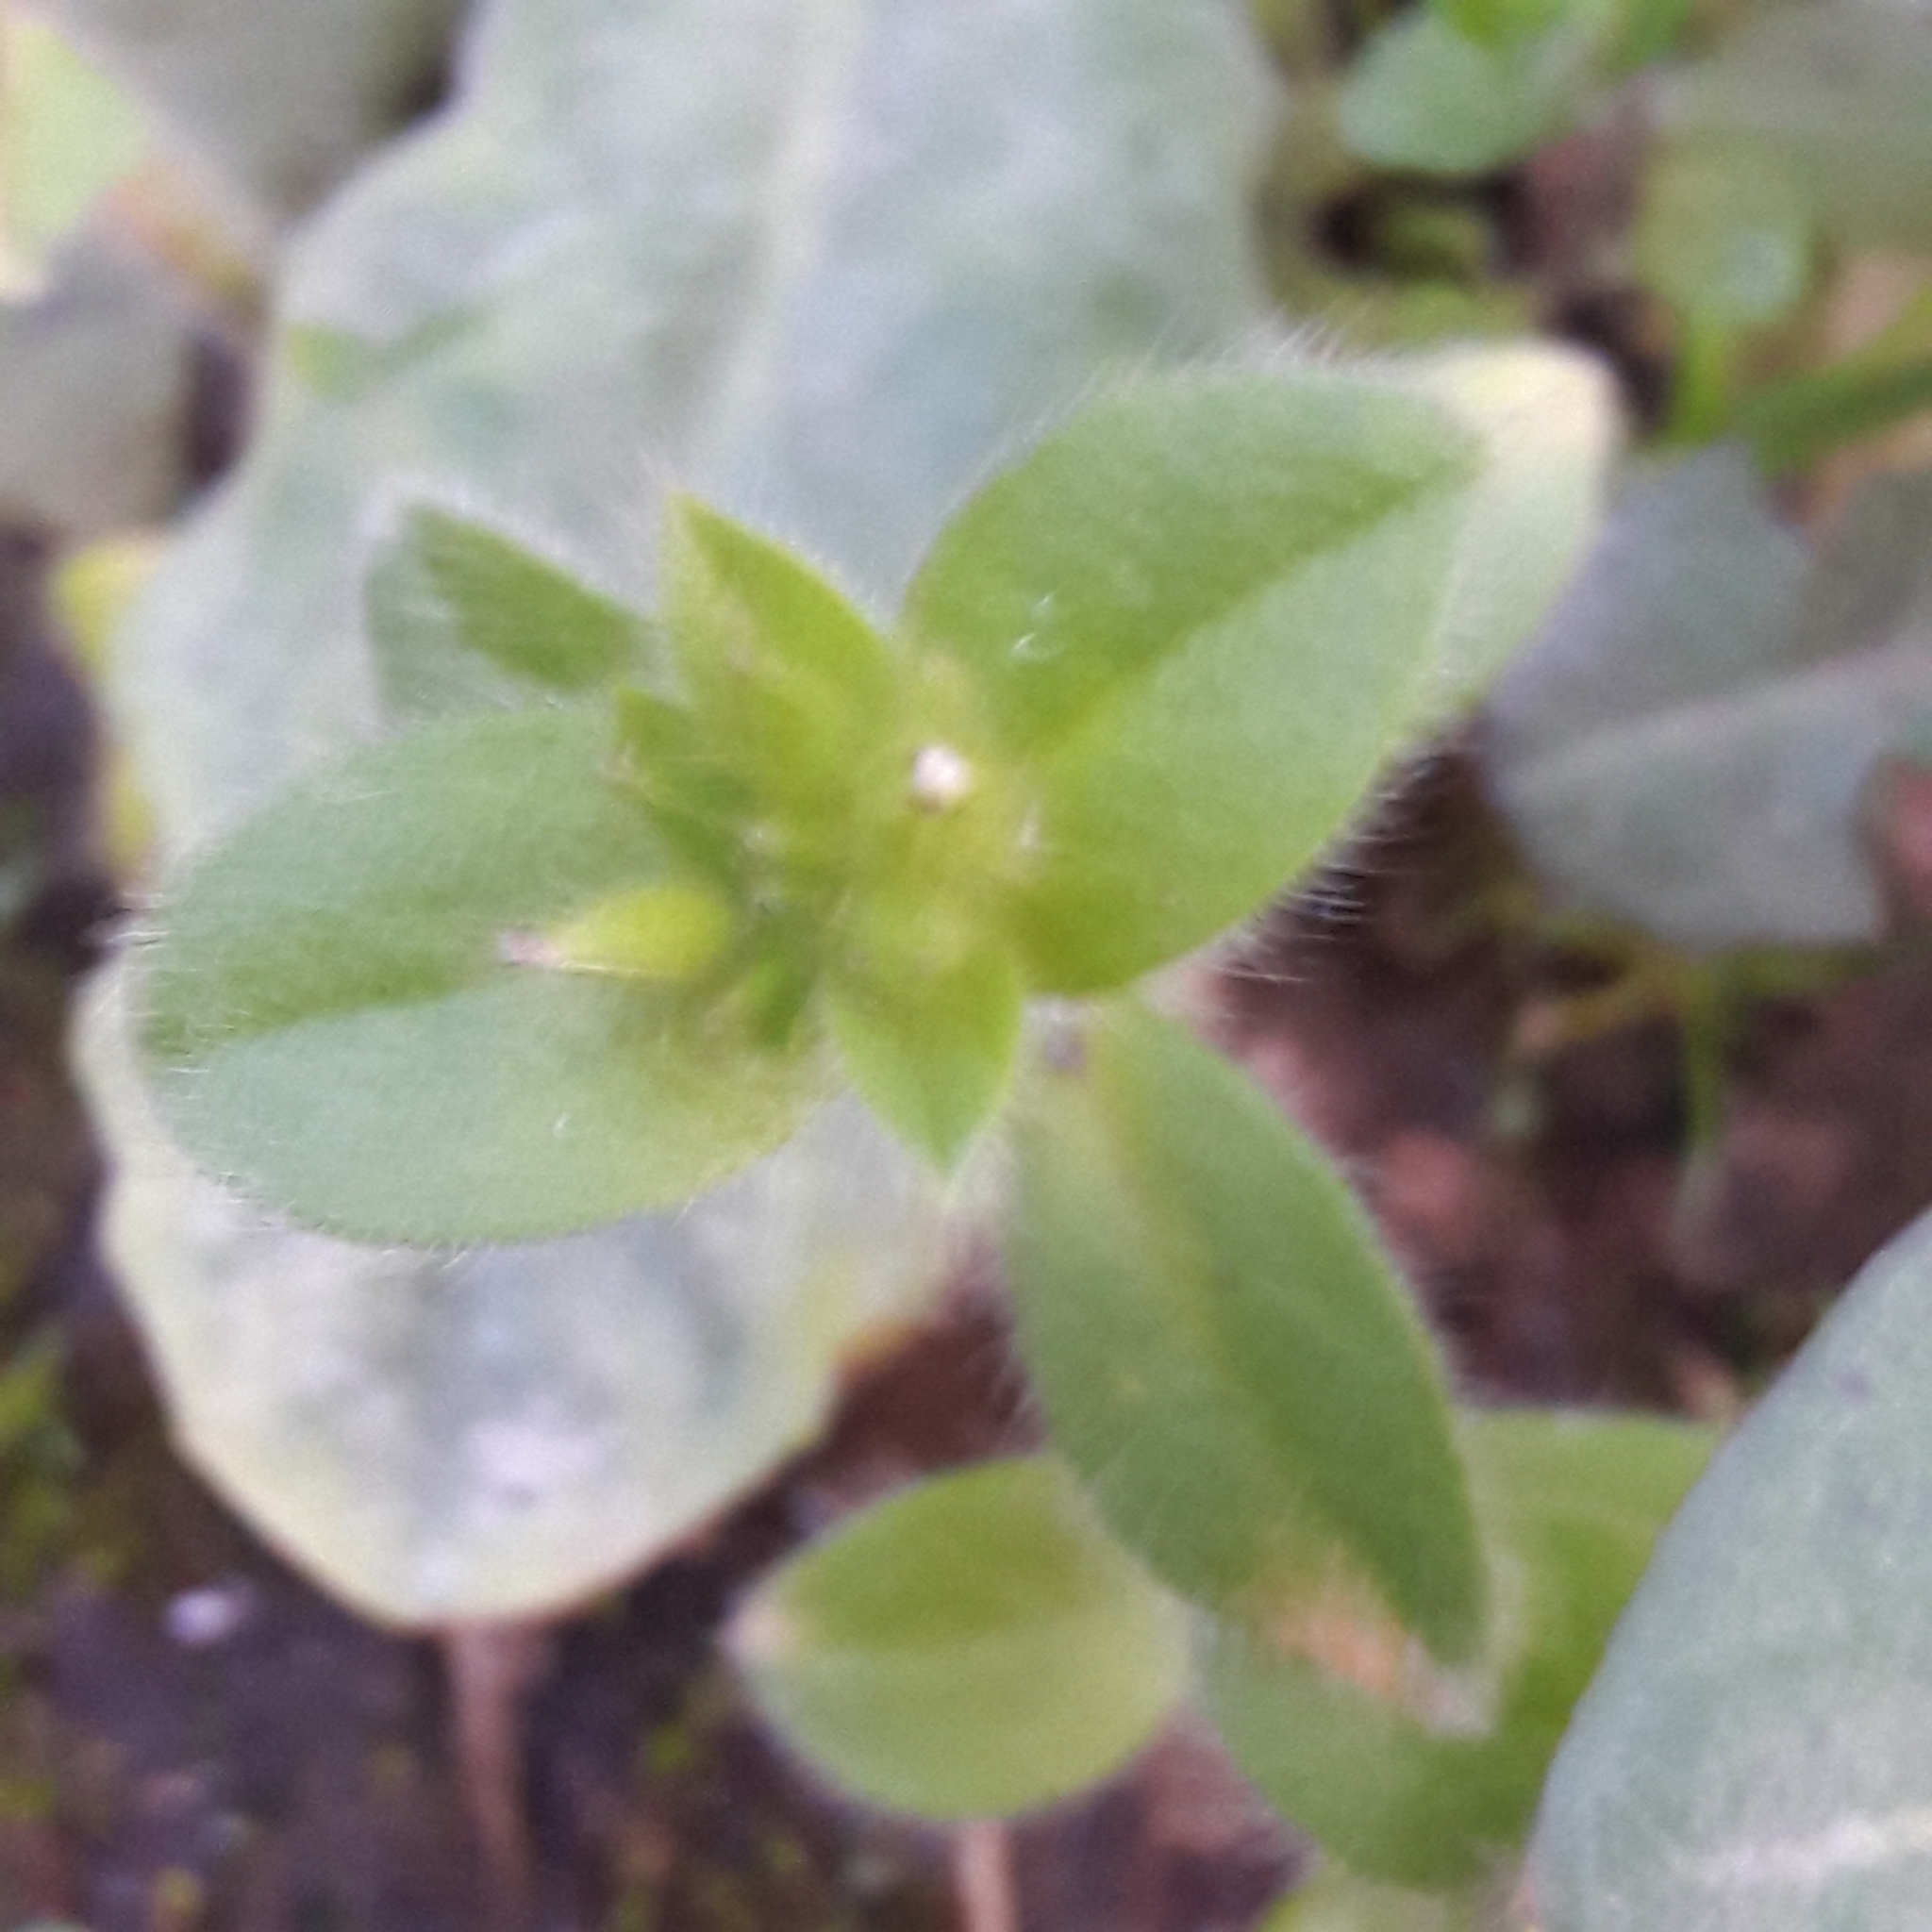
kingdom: Plantae
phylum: Tracheophyta
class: Magnoliopsida
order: Caryophyllales
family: Caryophyllaceae
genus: Cerastium
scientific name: Cerastium glomeratum
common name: Sticky chickweed
